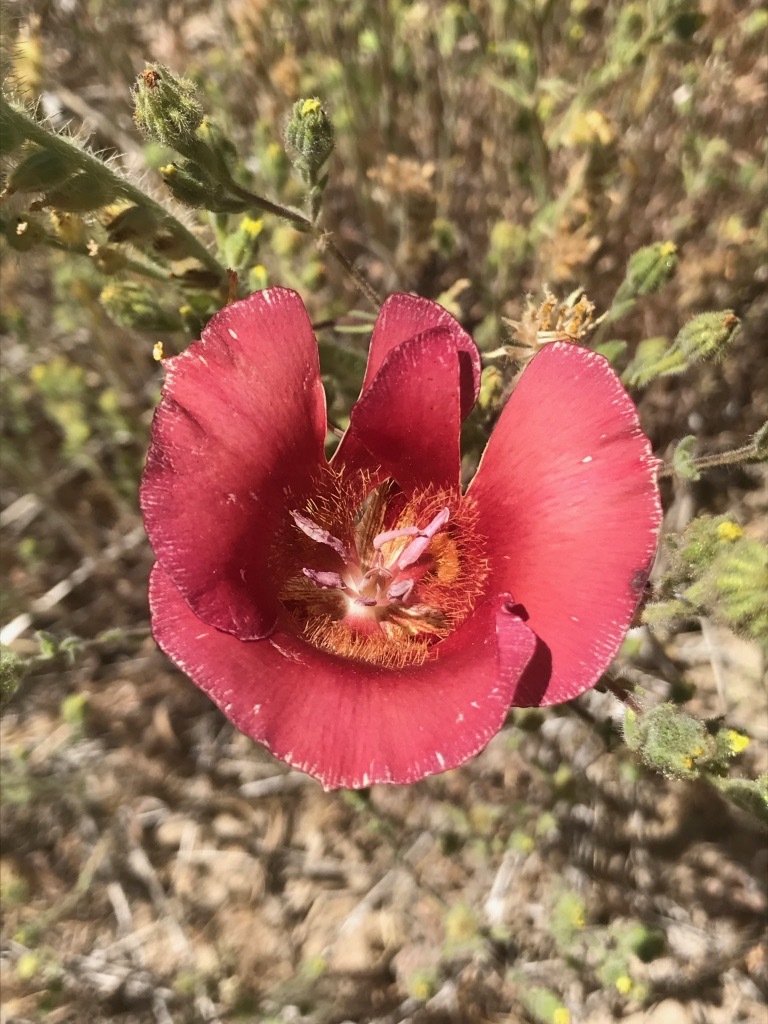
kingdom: Plantae
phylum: Tracheophyta
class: Liliopsida
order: Liliales
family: Liliaceae
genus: Calochortus
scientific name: Calochortus venustus
